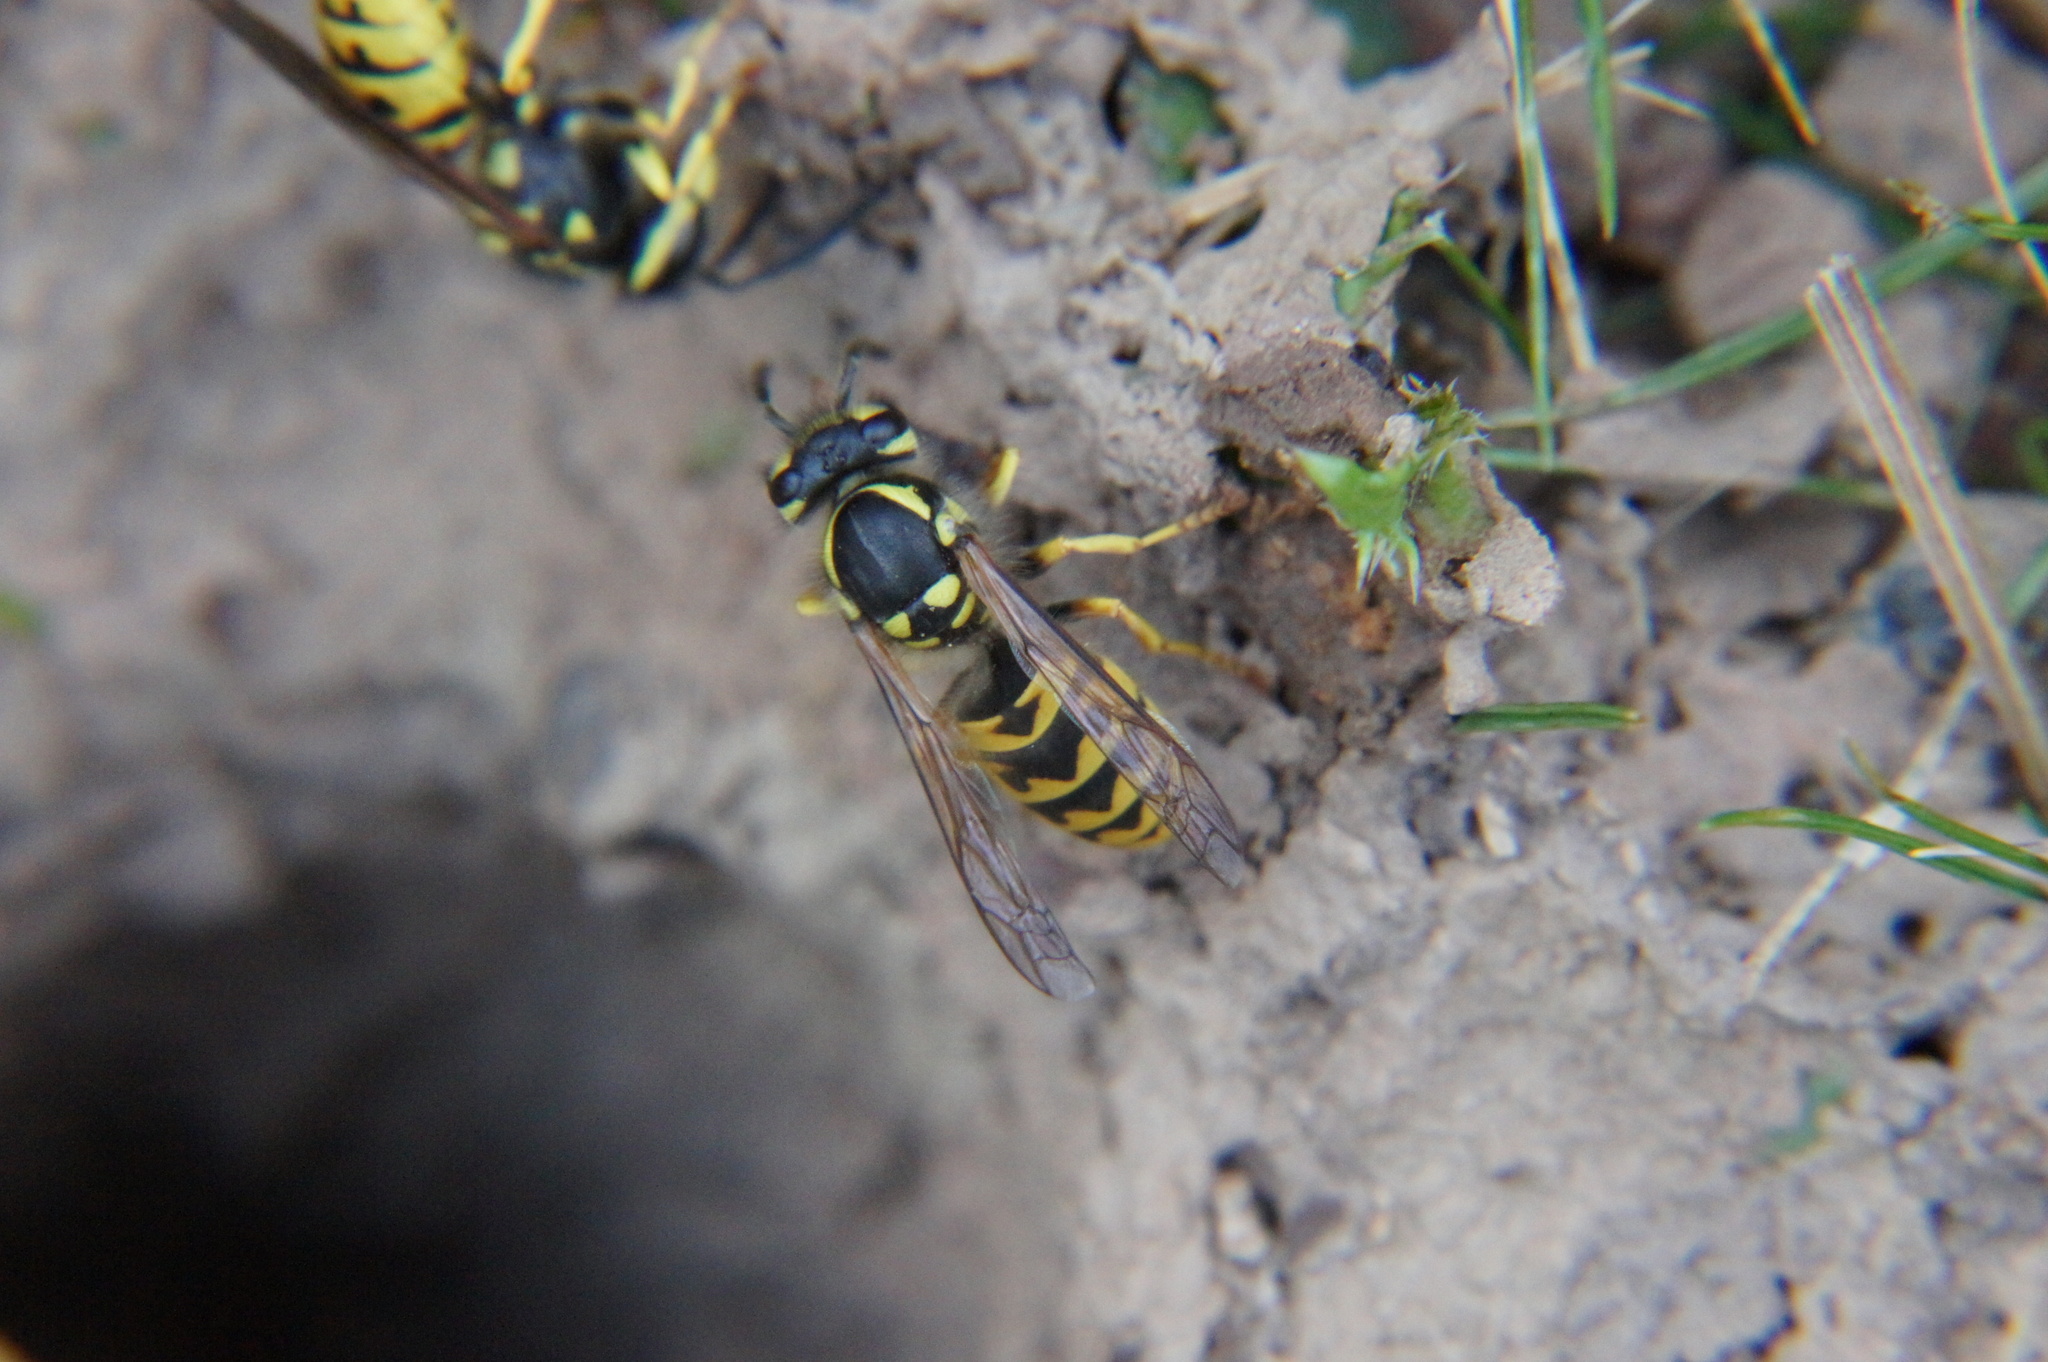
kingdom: Animalia
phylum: Arthropoda
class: Insecta
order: Hymenoptera
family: Vespidae
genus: Vespula
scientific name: Vespula germanica
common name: German wasp
